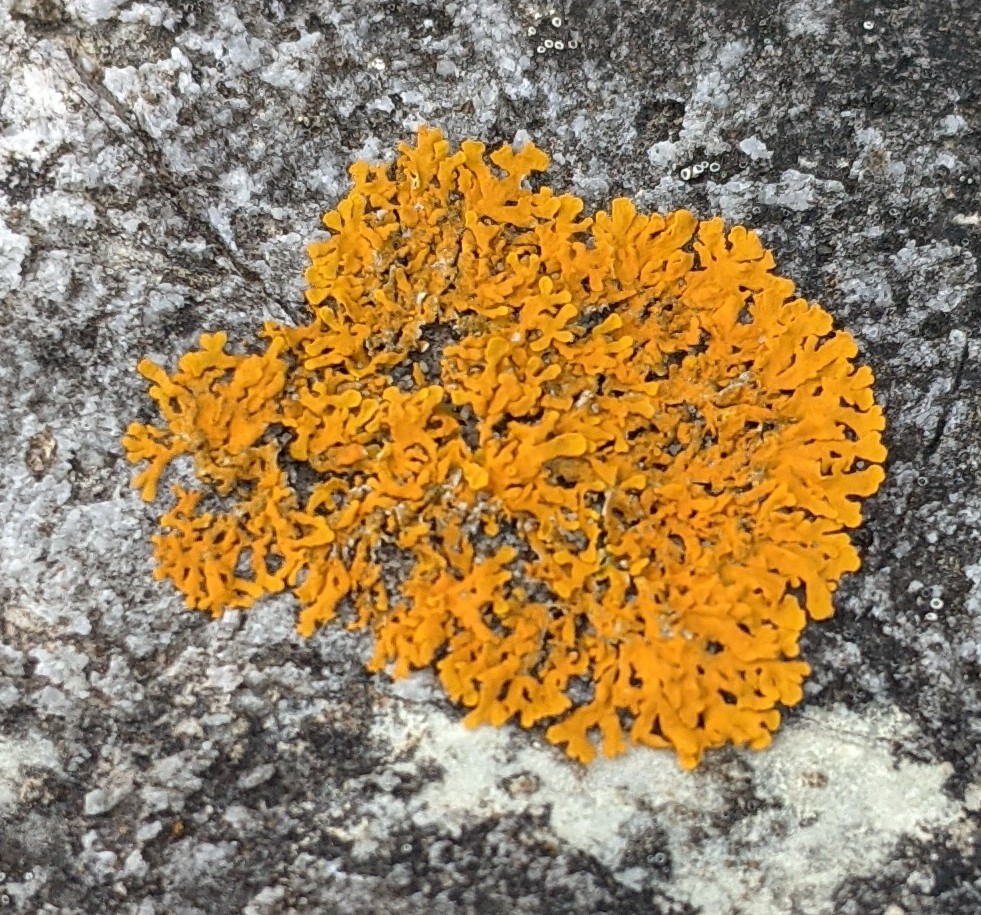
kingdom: Fungi
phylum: Ascomycota
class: Lecanoromycetes
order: Teloschistales
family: Teloschistaceae
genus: Xanthoria
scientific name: Xanthoria parietina
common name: Common orange lichen
